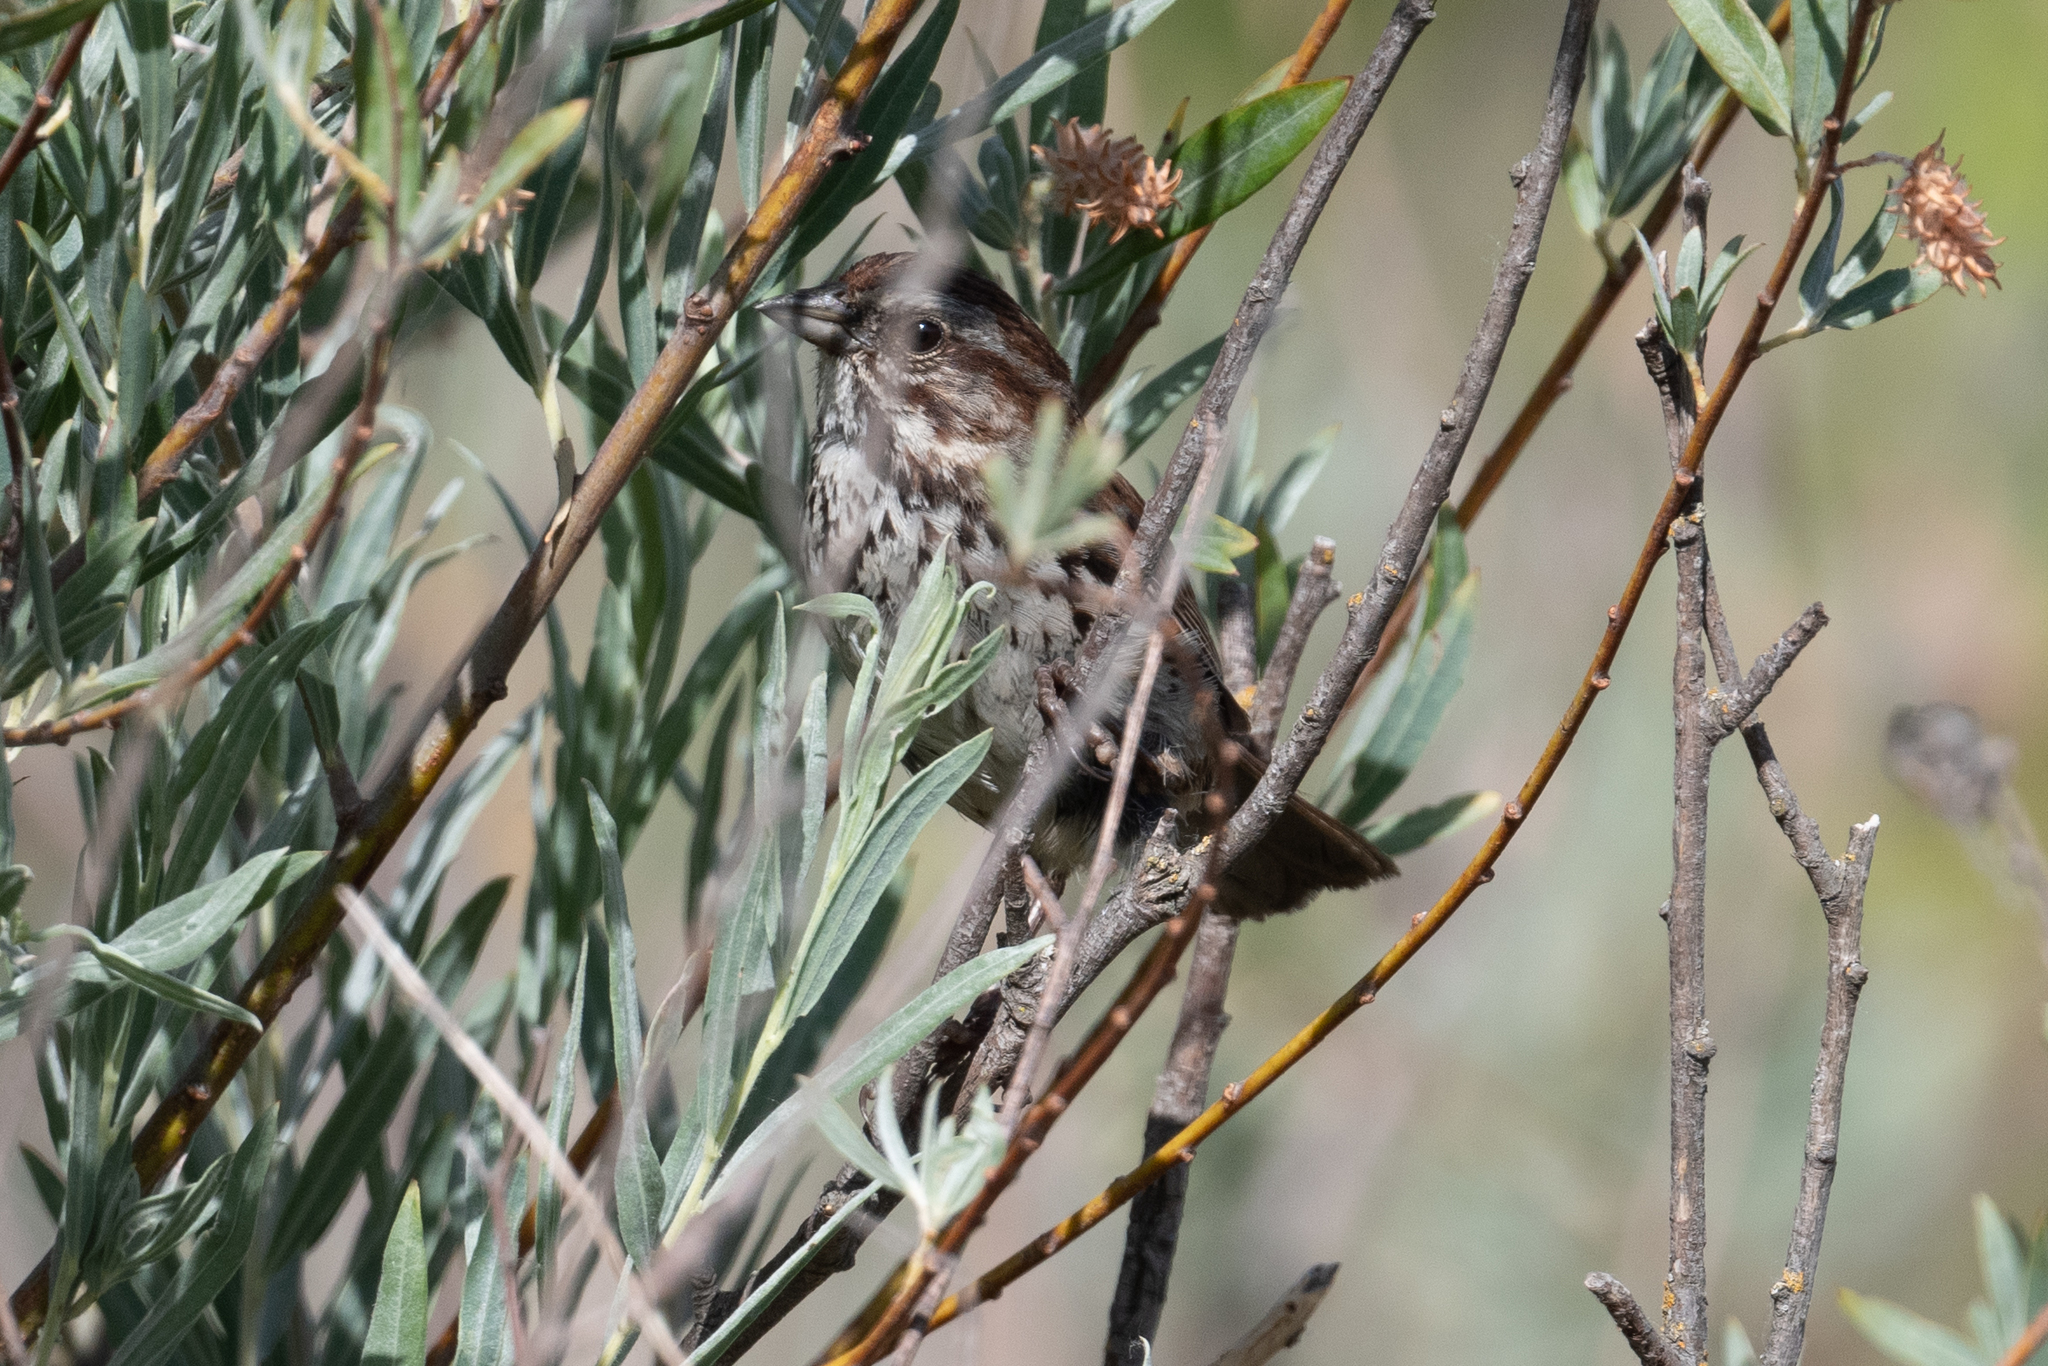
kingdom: Animalia
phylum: Chordata
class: Aves
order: Passeriformes
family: Passerellidae
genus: Melospiza
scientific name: Melospiza melodia
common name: Song sparrow
